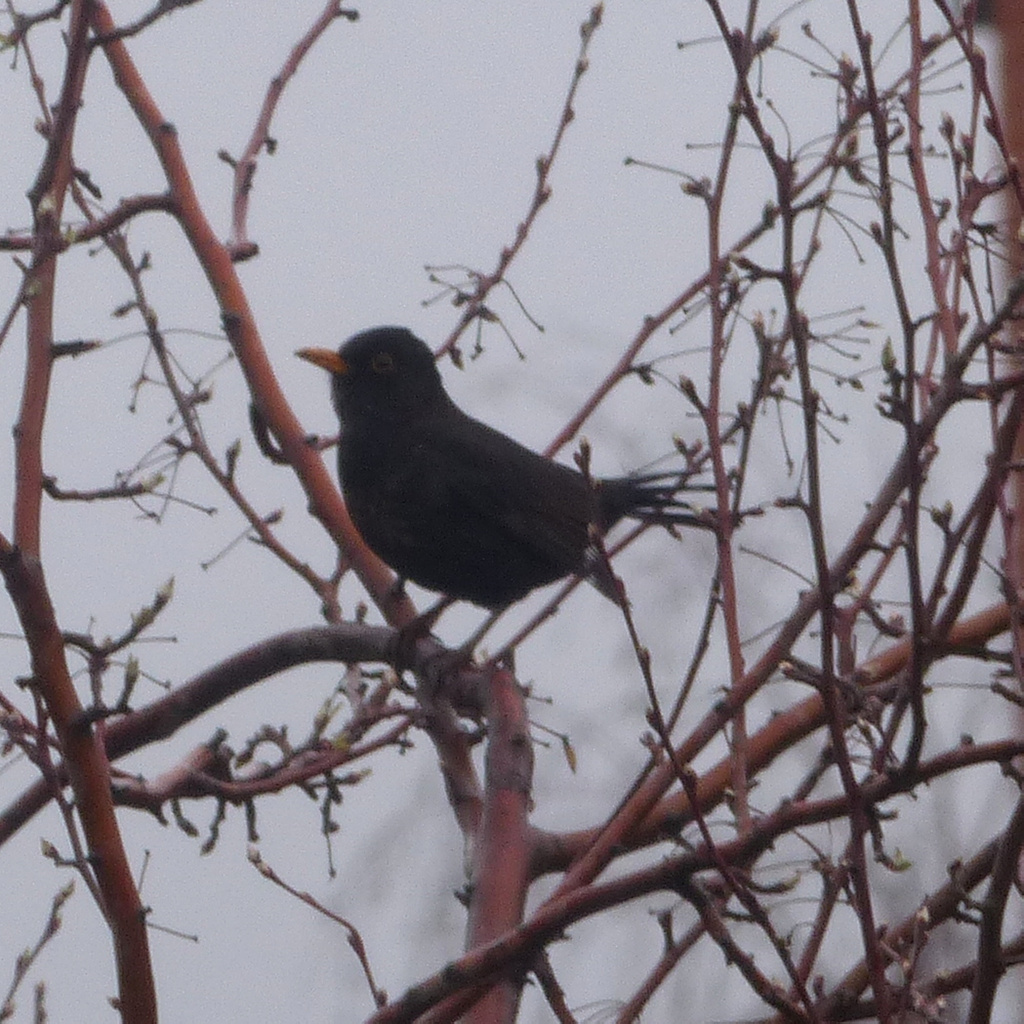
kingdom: Animalia
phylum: Chordata
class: Aves
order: Passeriformes
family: Turdidae
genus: Turdus
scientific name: Turdus merula
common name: Common blackbird
